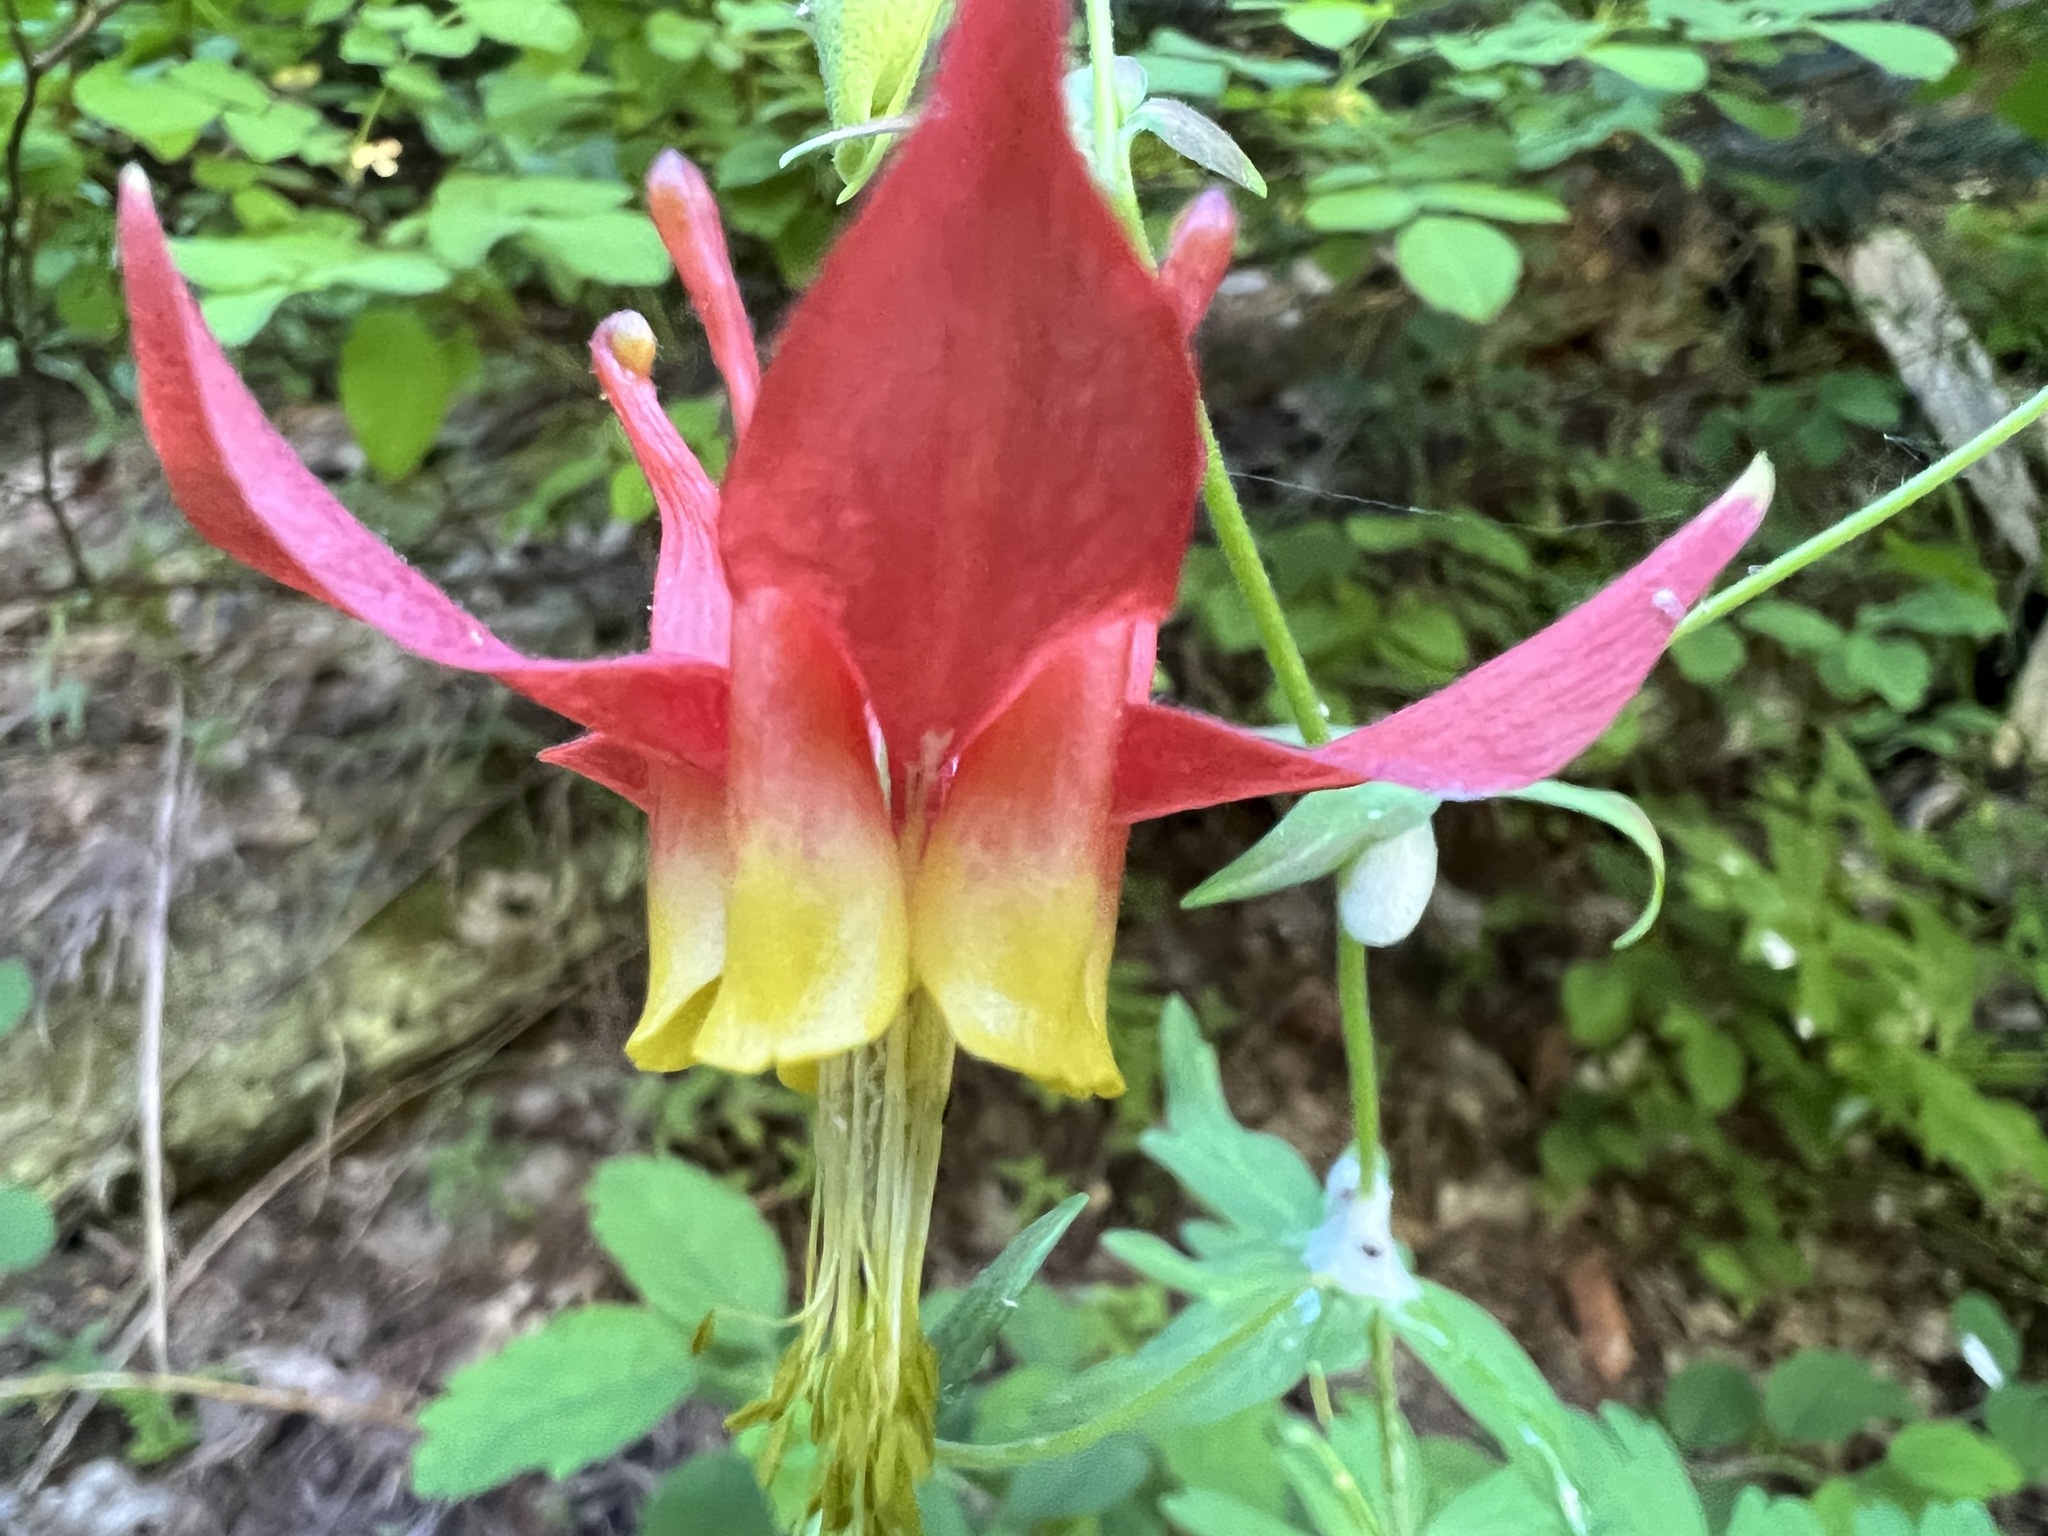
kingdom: Plantae
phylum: Tracheophyta
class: Magnoliopsida
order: Ranunculales
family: Ranunculaceae
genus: Aquilegia
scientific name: Aquilegia formosa
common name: Sitka columbine
